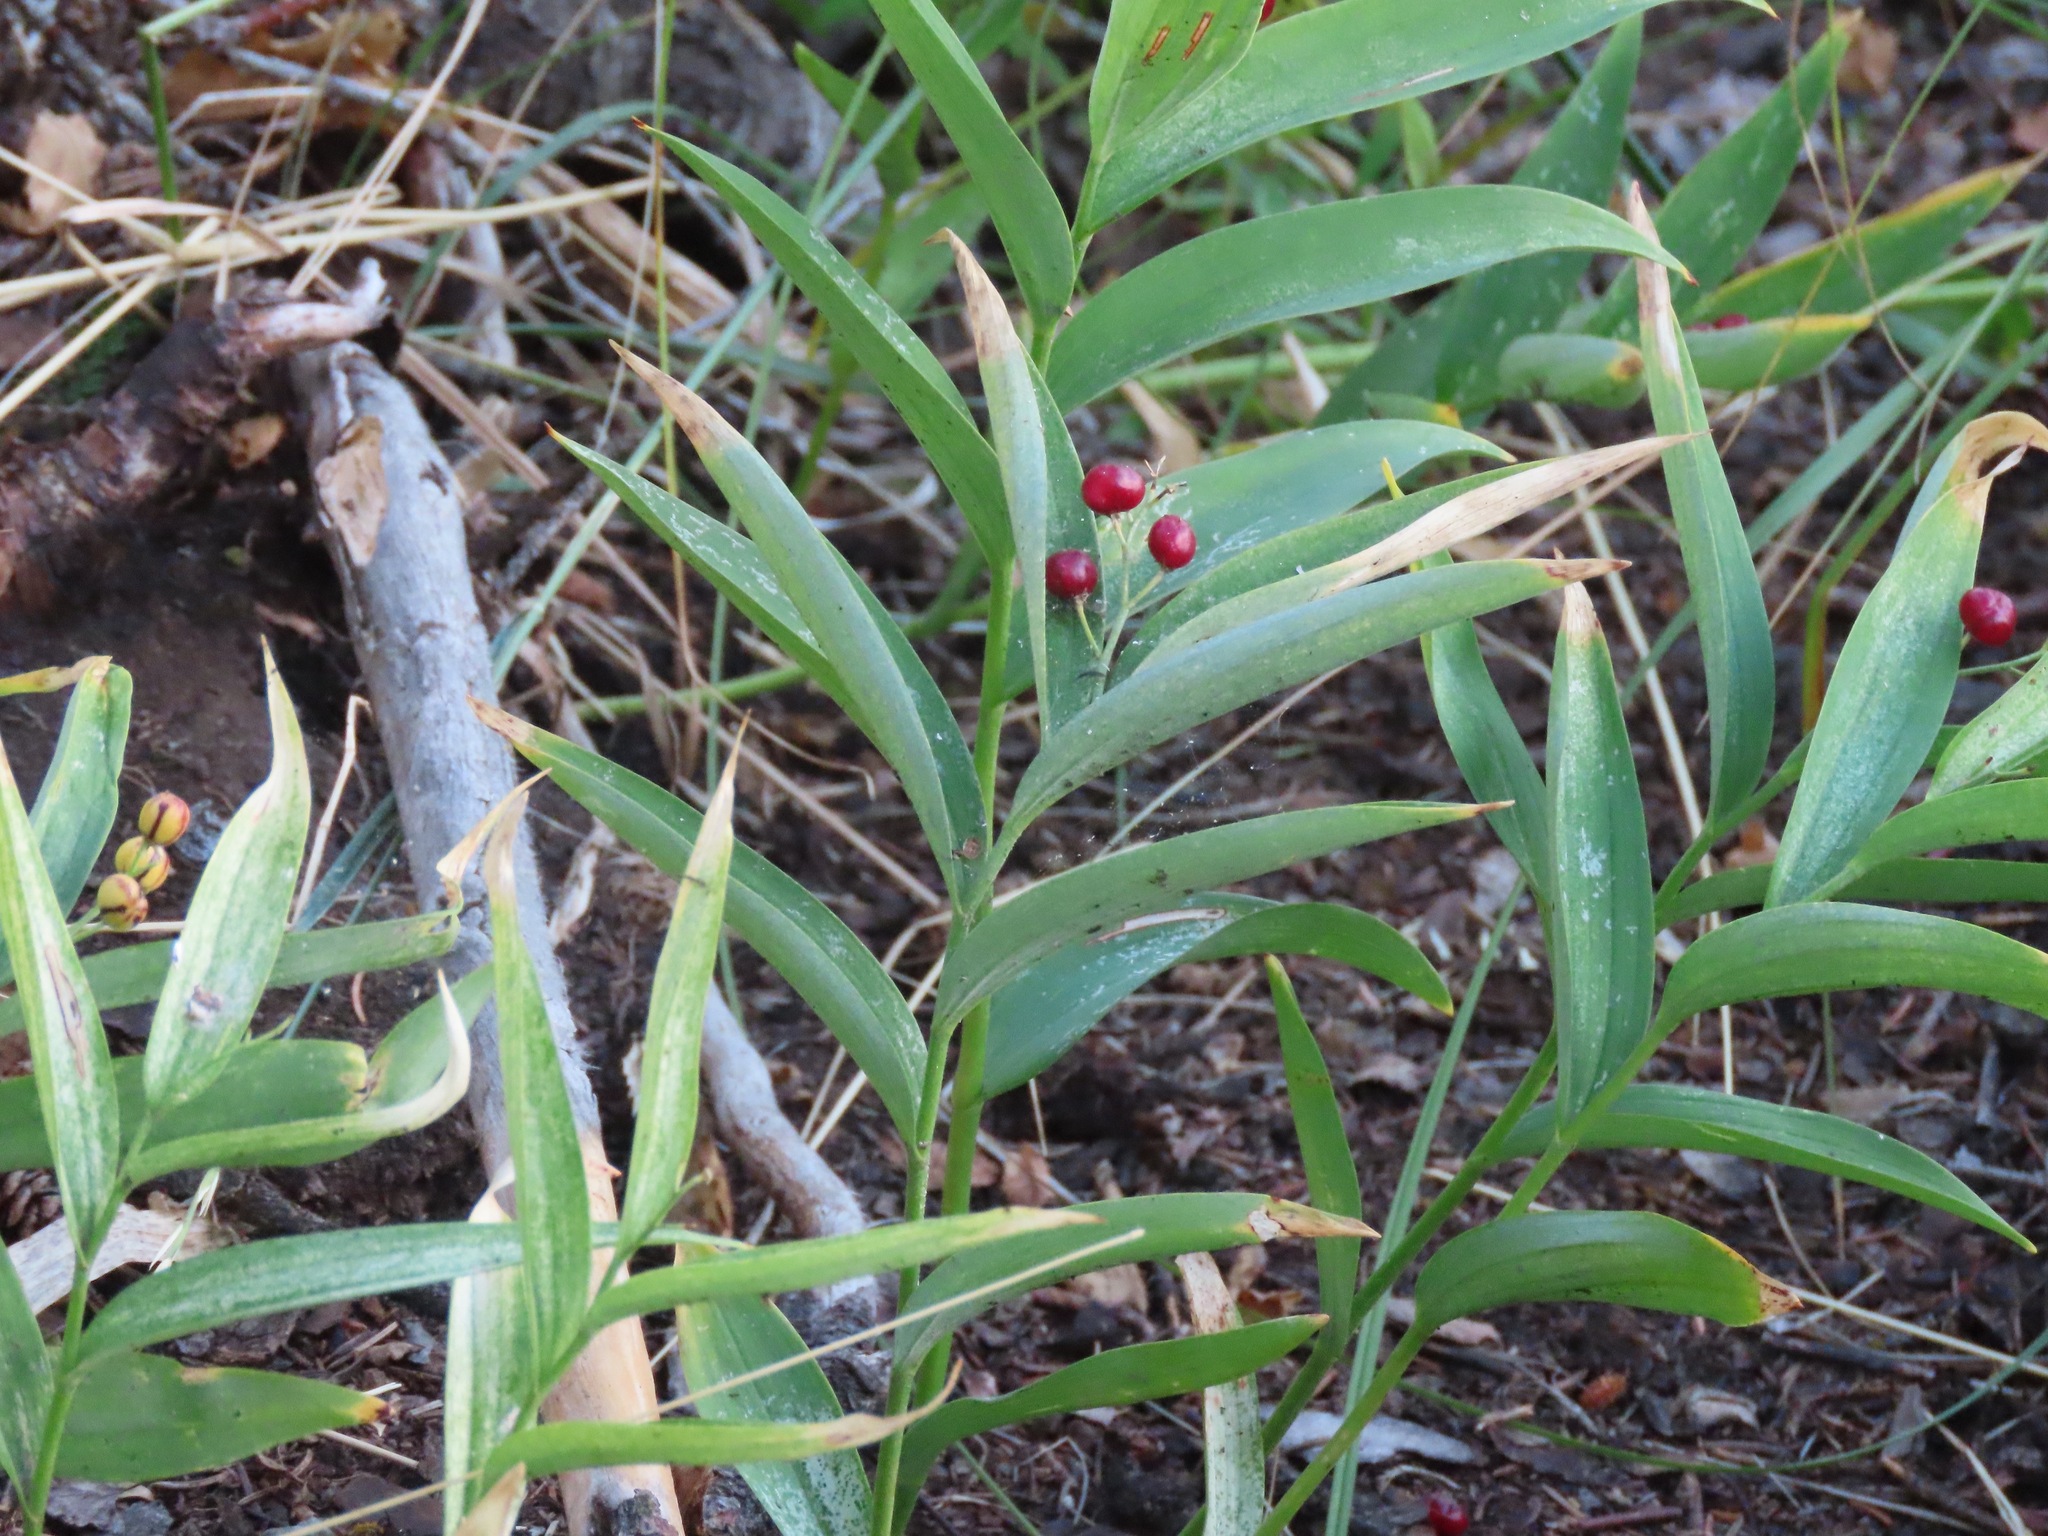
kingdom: Plantae
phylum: Tracheophyta
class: Liliopsida
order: Asparagales
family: Asparagaceae
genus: Maianthemum
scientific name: Maianthemum stellatum
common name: Little false solomon's seal
